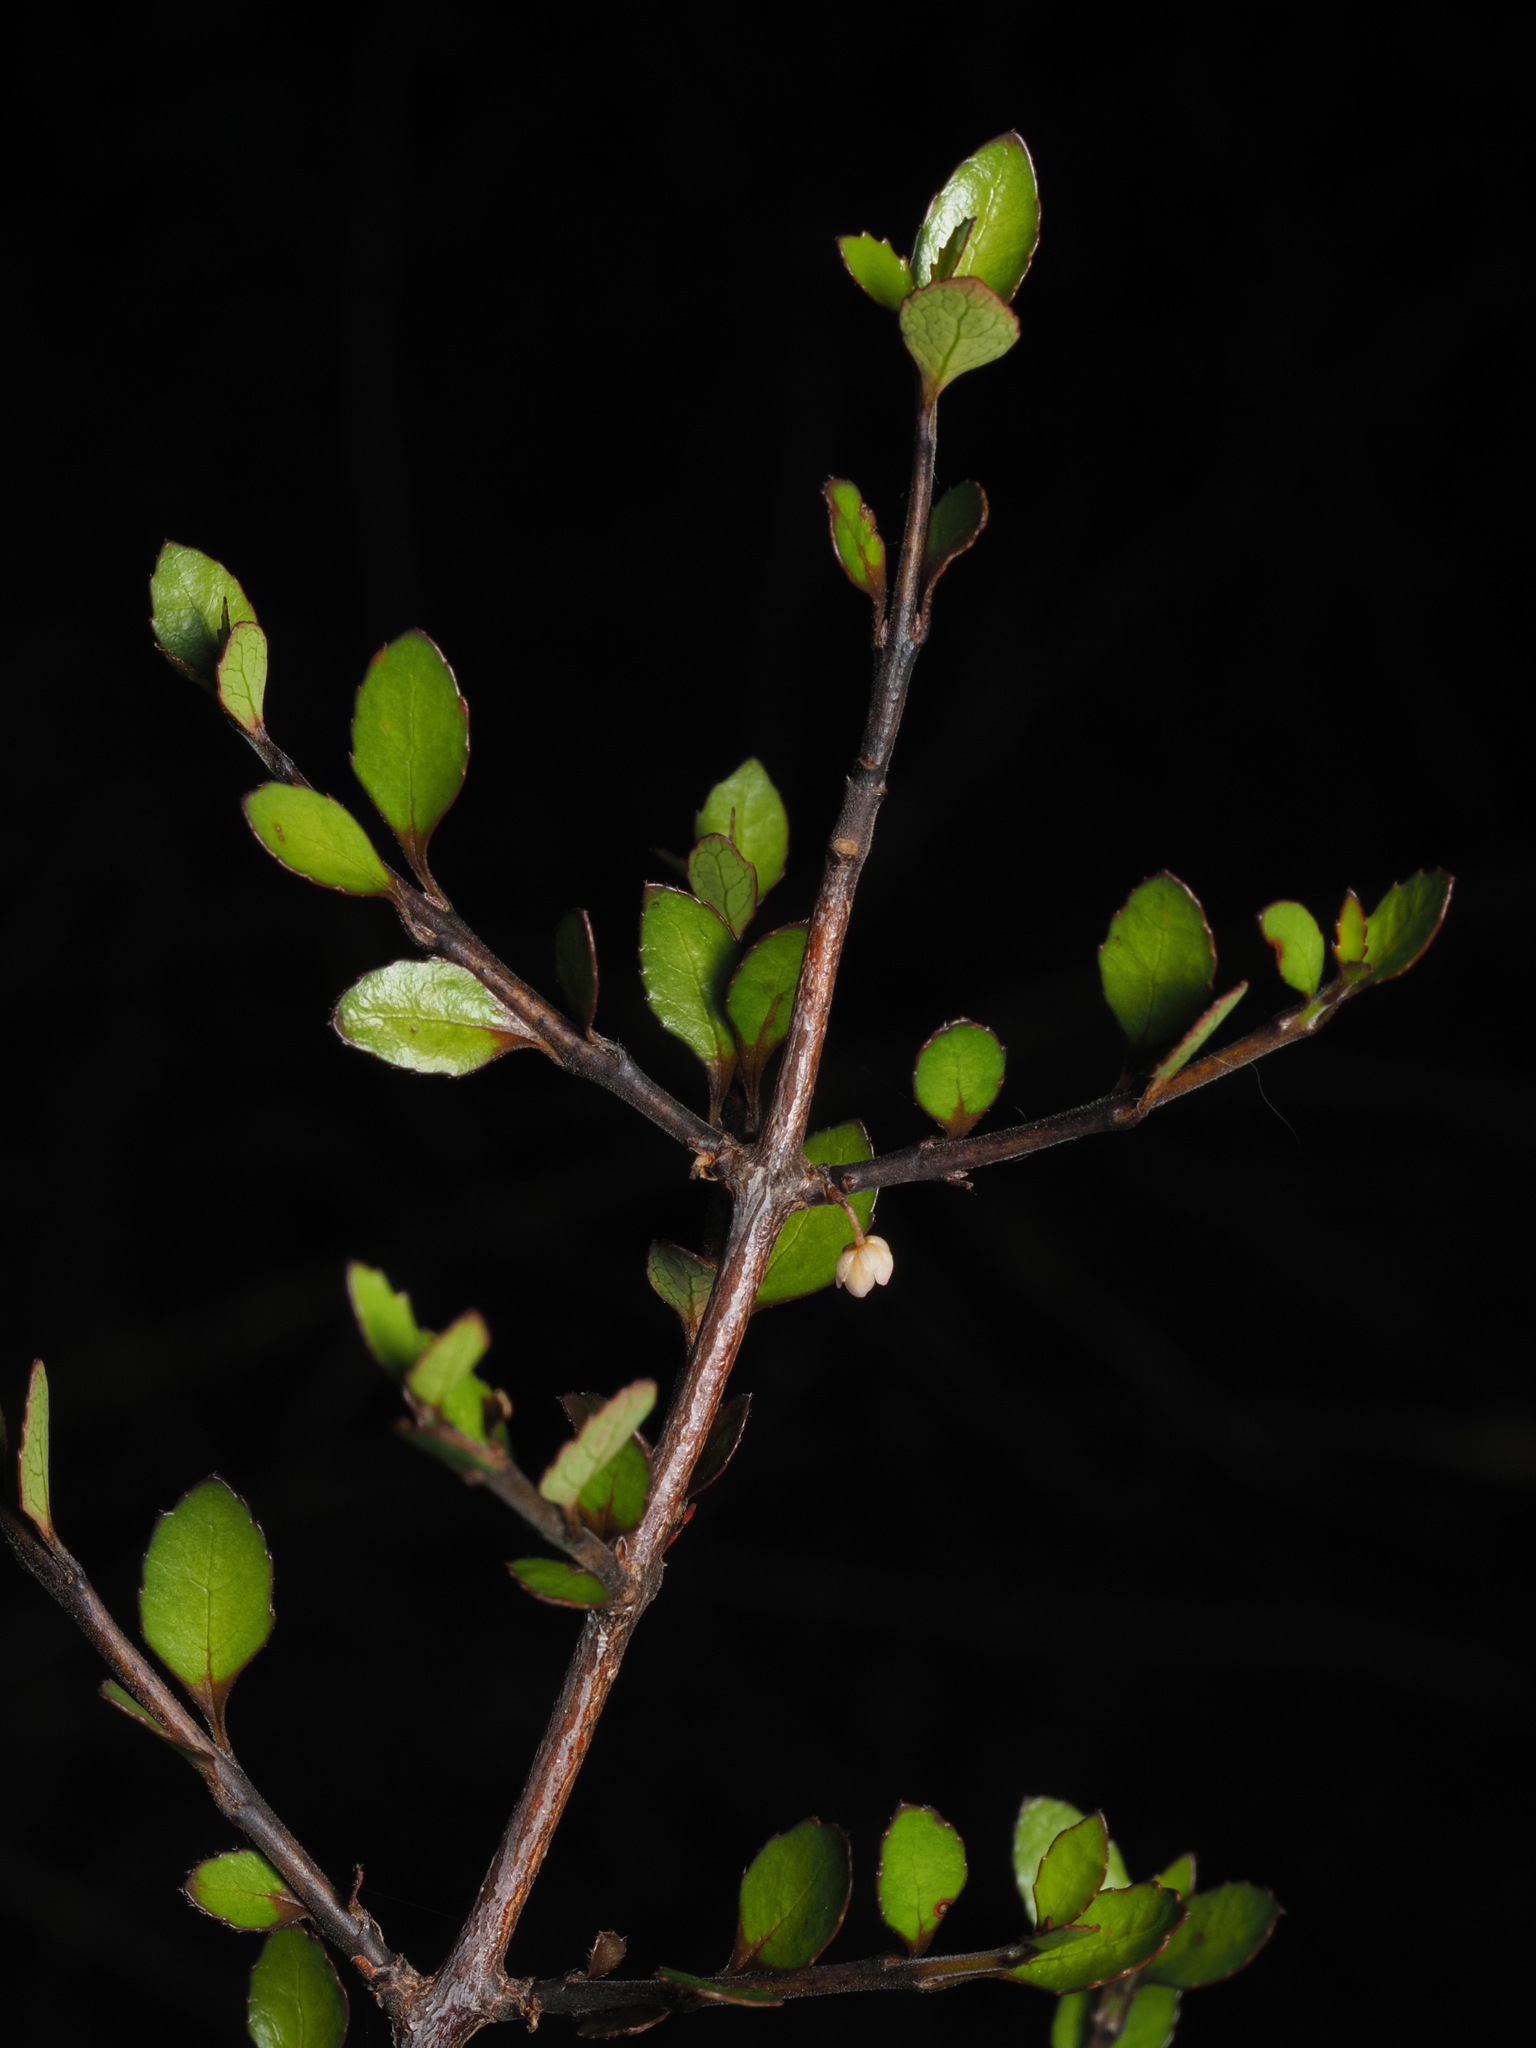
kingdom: Plantae
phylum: Tracheophyta
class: Magnoliopsida
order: Apiales
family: Araliaceae
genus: Raukaua
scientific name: Raukaua anomalus
